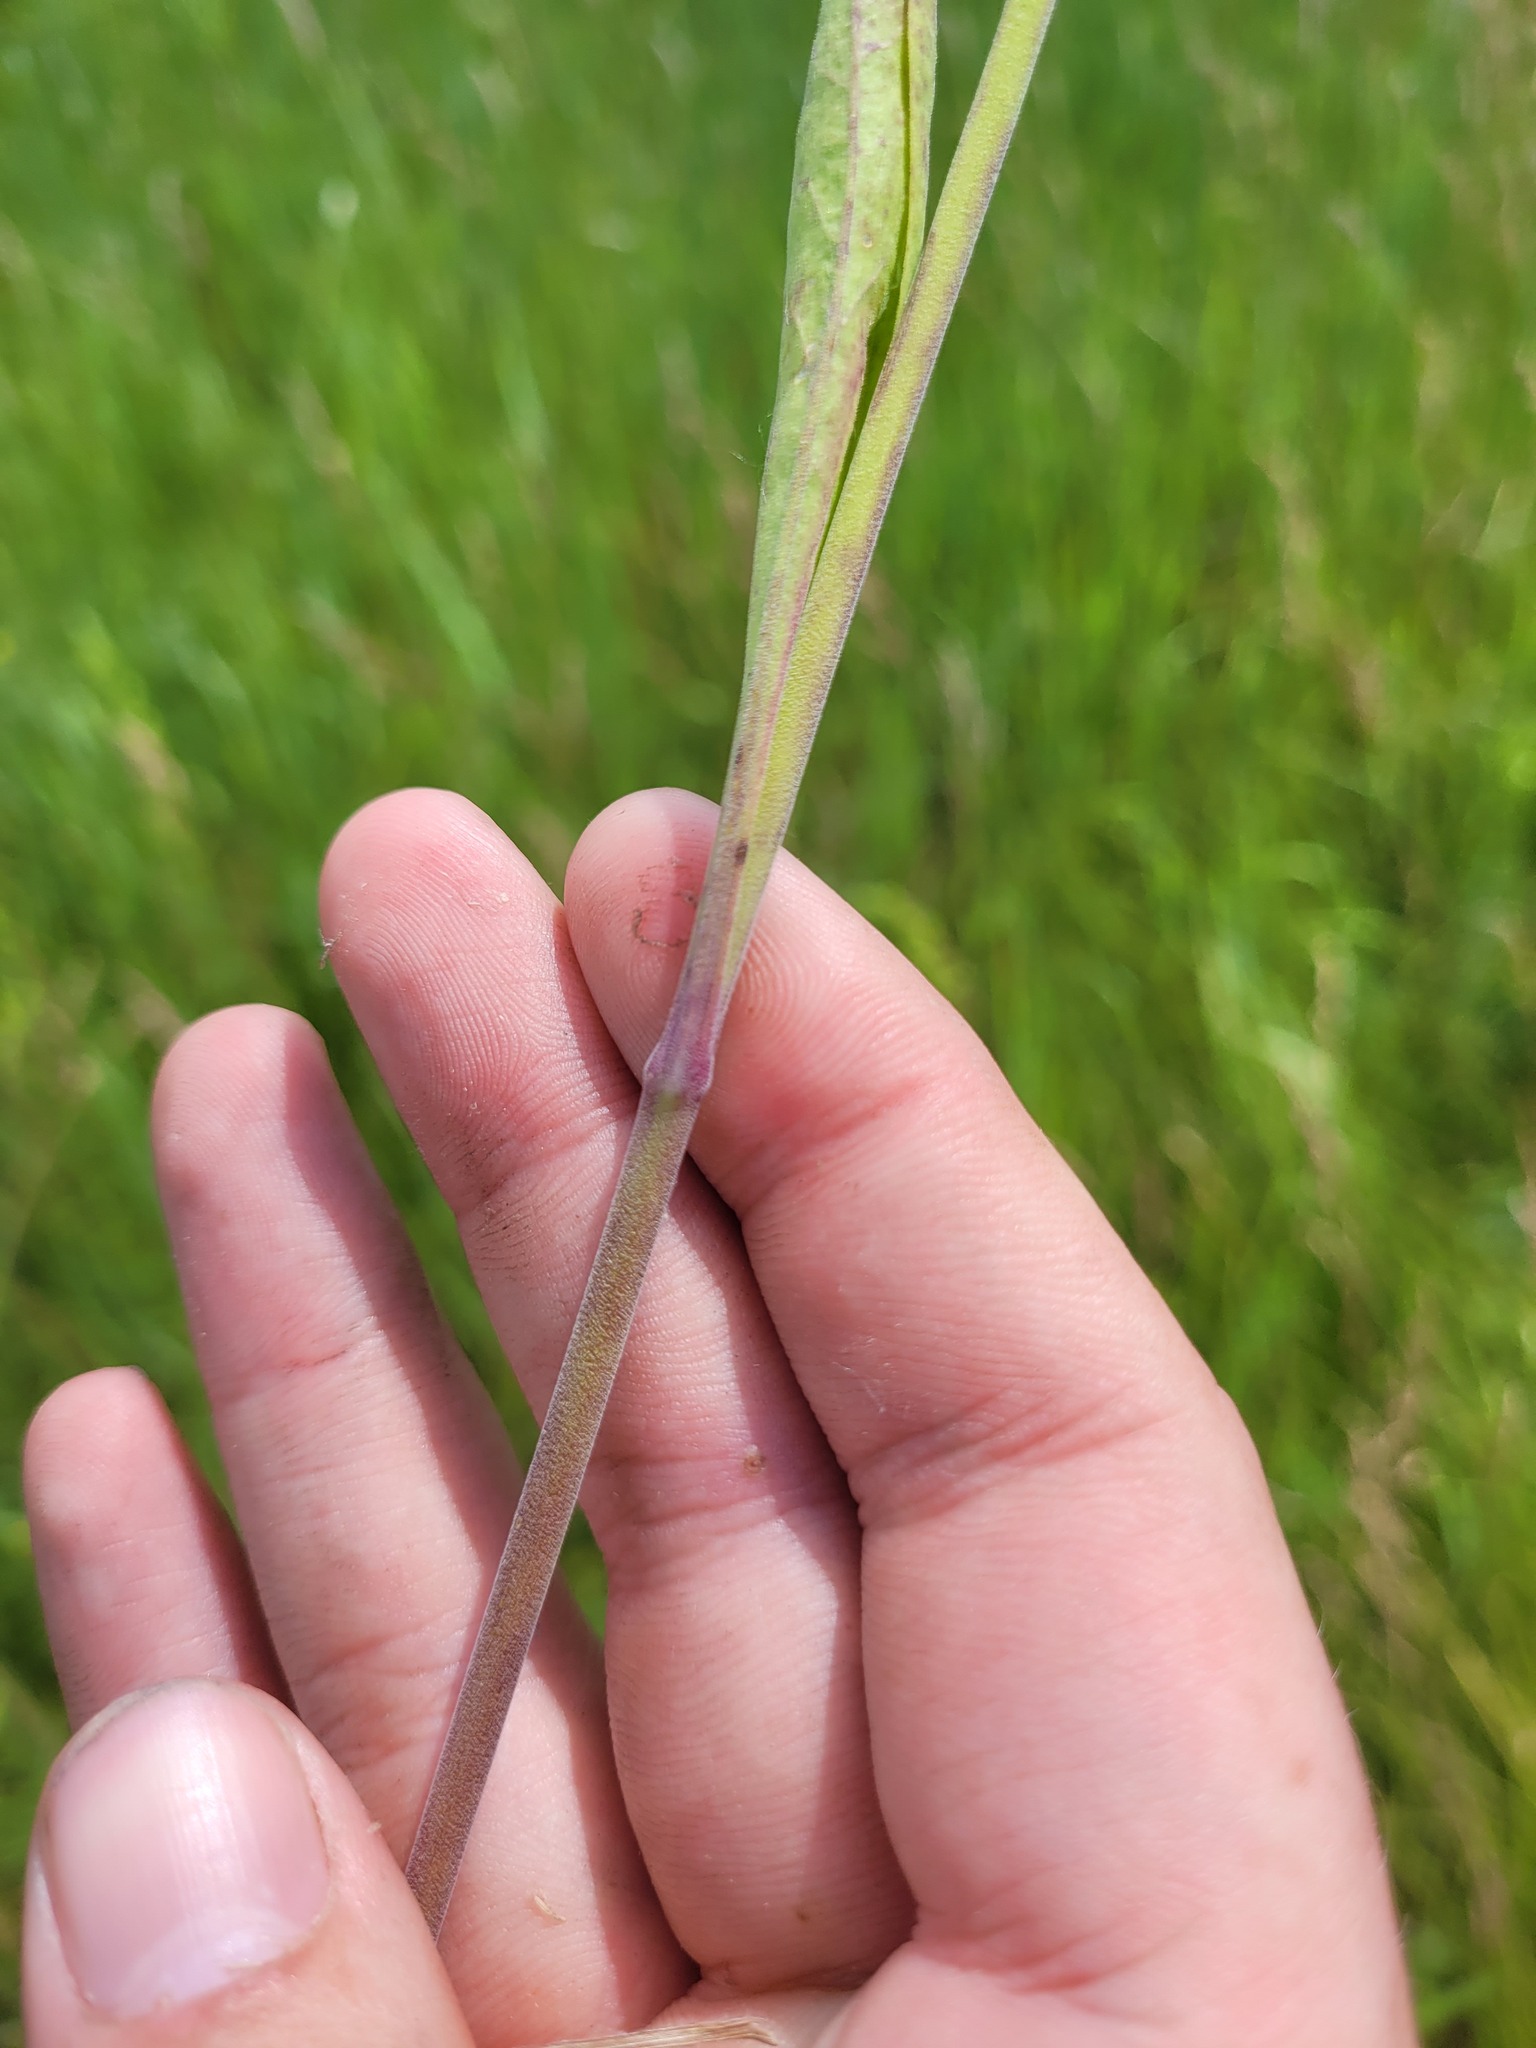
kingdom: Plantae
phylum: Tracheophyta
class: Magnoliopsida
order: Caryophyllales
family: Caryophyllaceae
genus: Silene
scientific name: Silene multiflora
